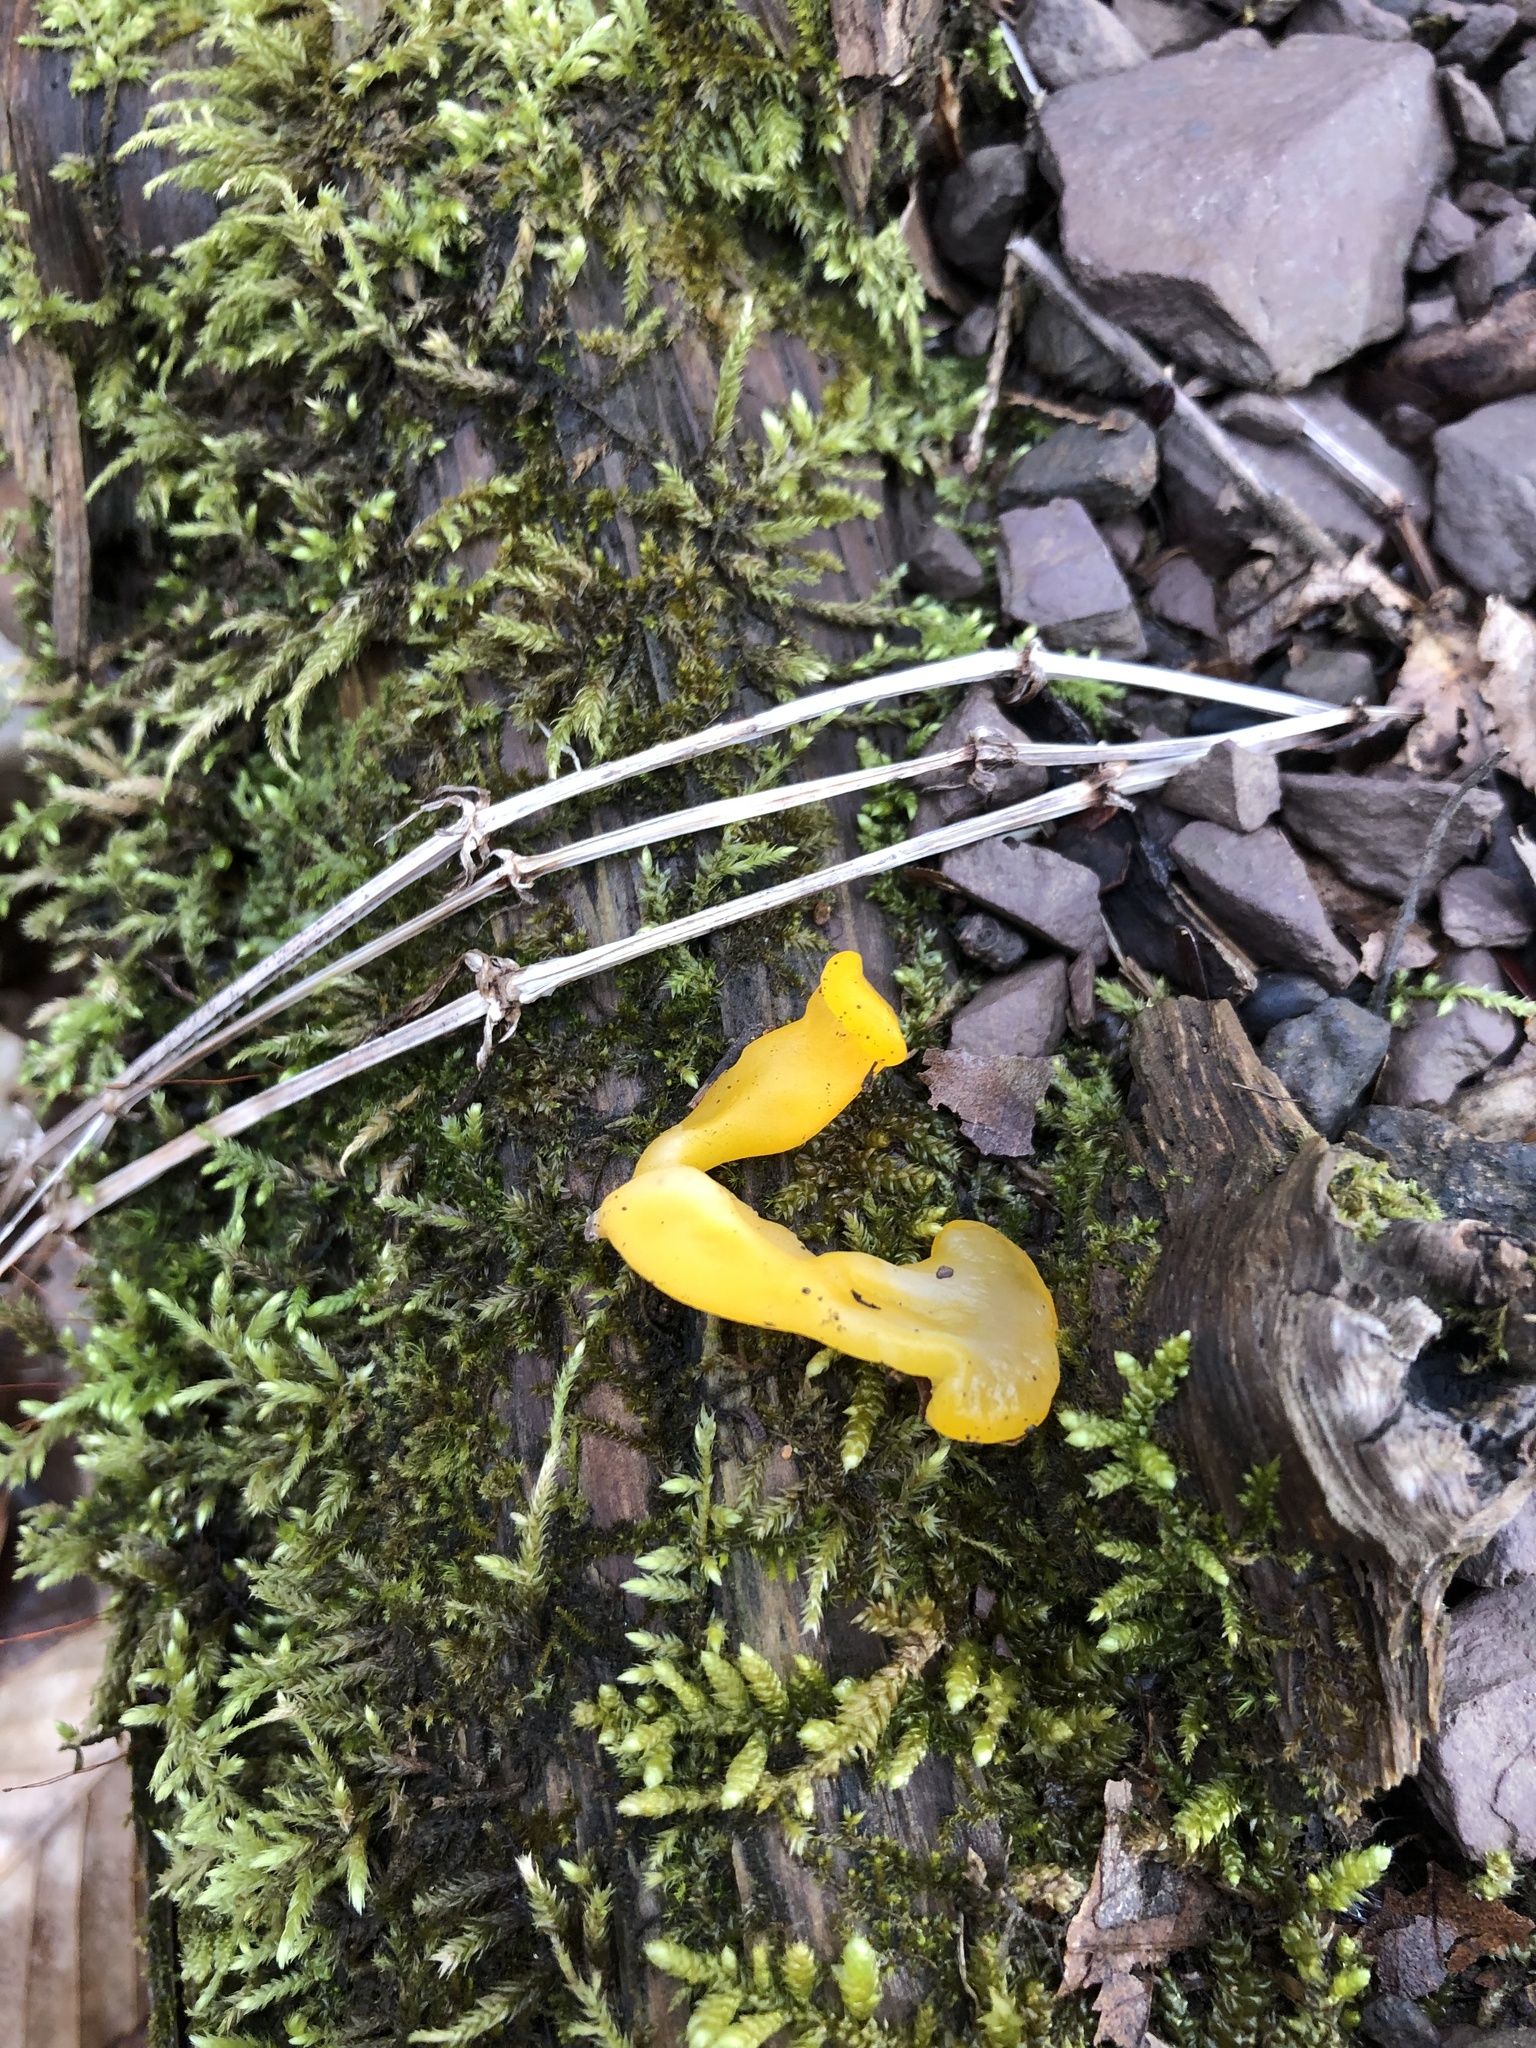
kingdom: Fungi
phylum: Basidiomycota
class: Dacrymycetes
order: Dacrymycetales
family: Dacrymycetaceae
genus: Dacrymyces
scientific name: Dacrymyces chrysospermus
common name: Orange jelly spot
